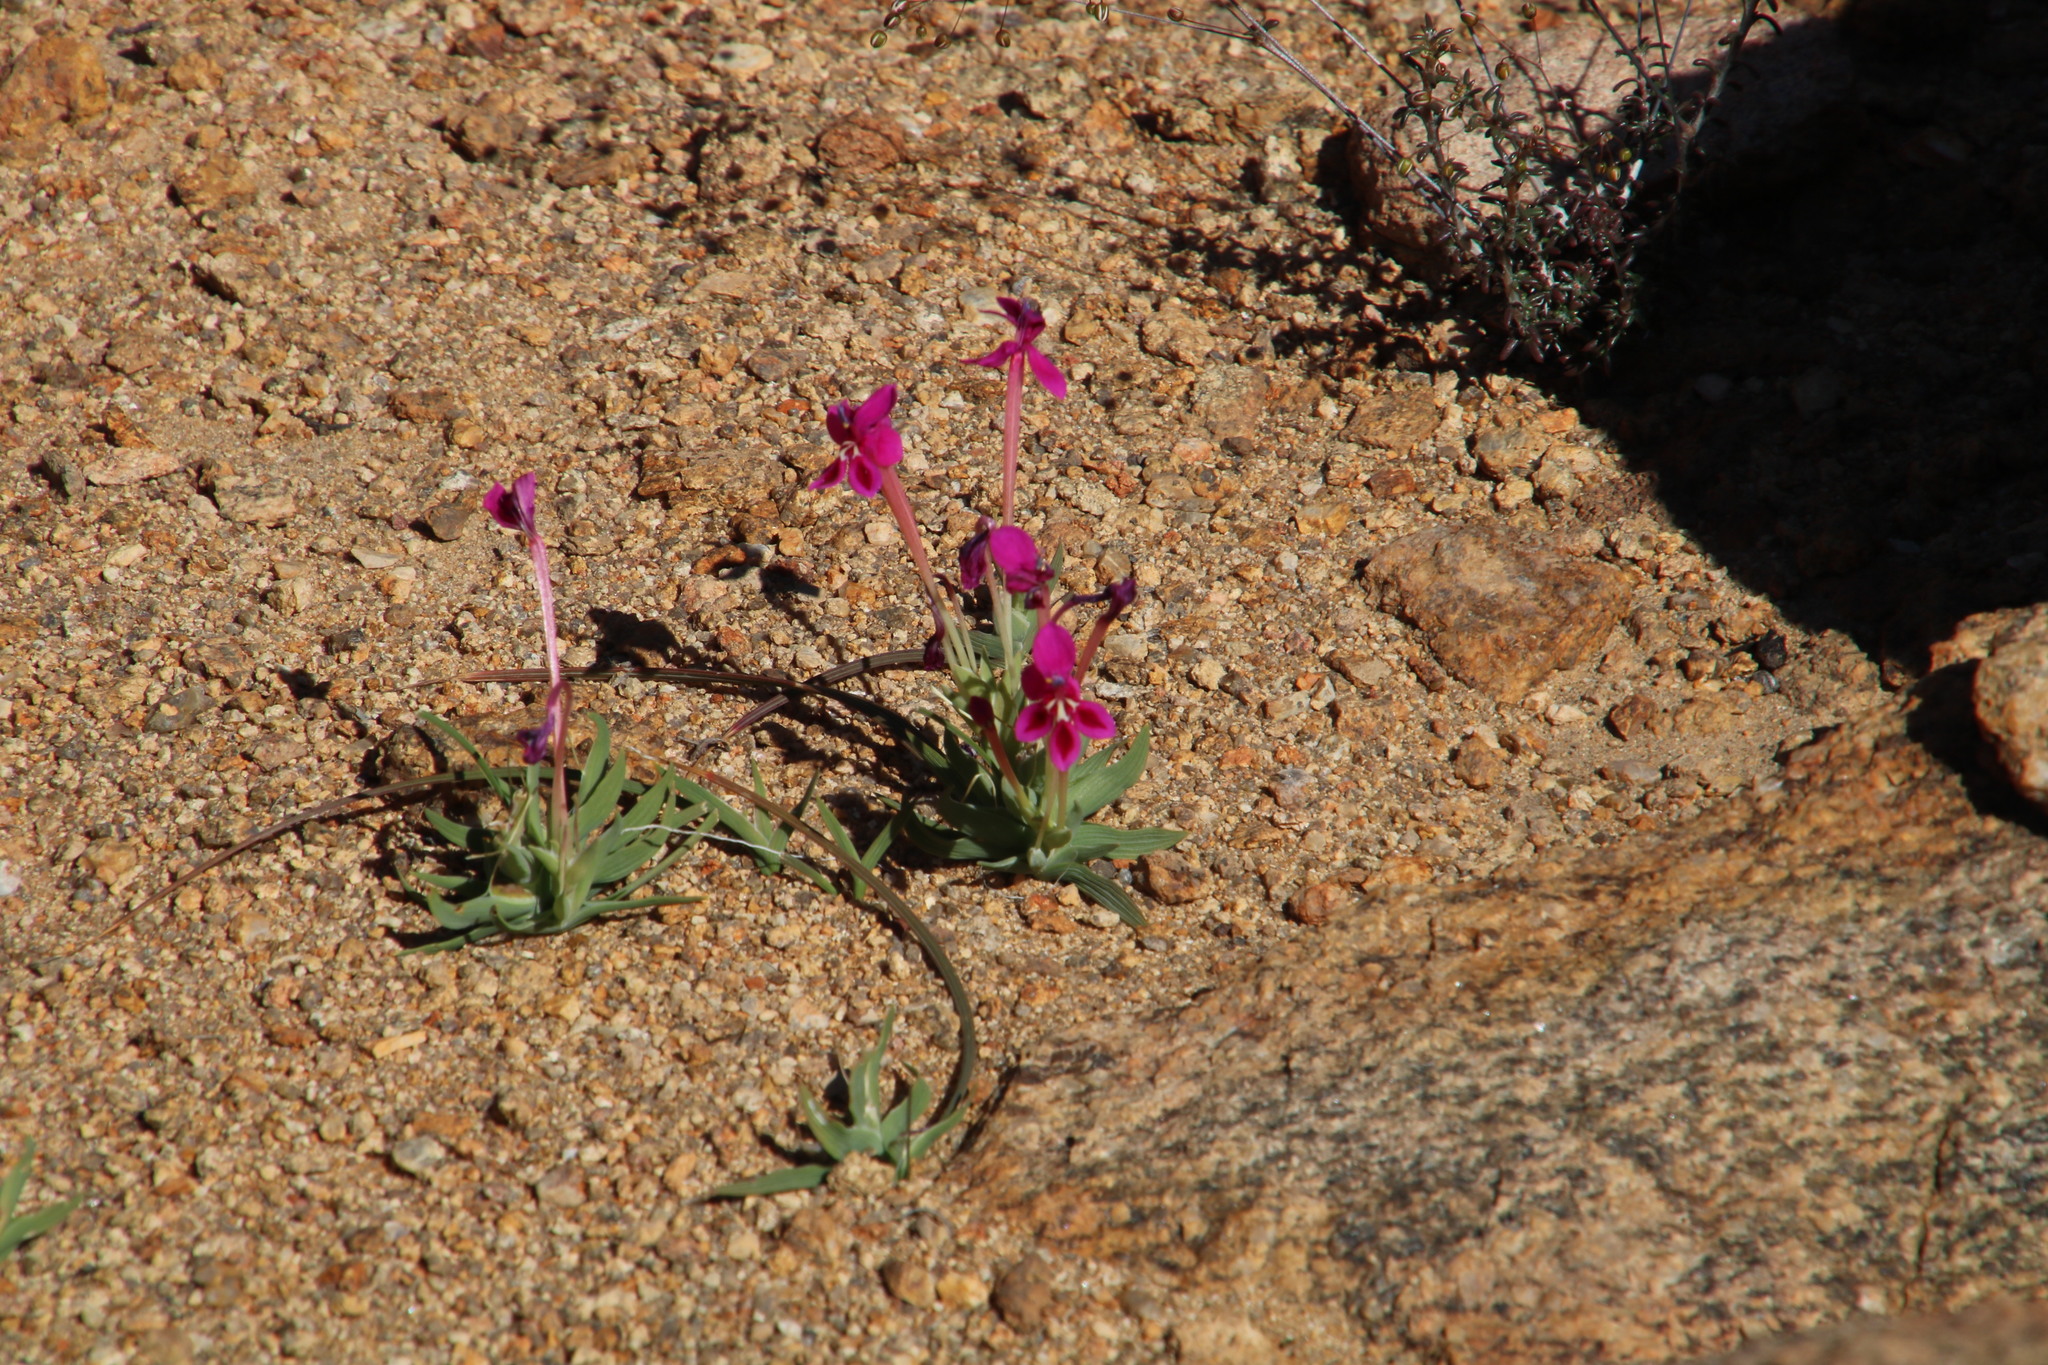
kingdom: Plantae
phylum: Tracheophyta
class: Liliopsida
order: Asparagales
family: Iridaceae
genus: Lapeirousia
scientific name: Lapeirousia silenoides
